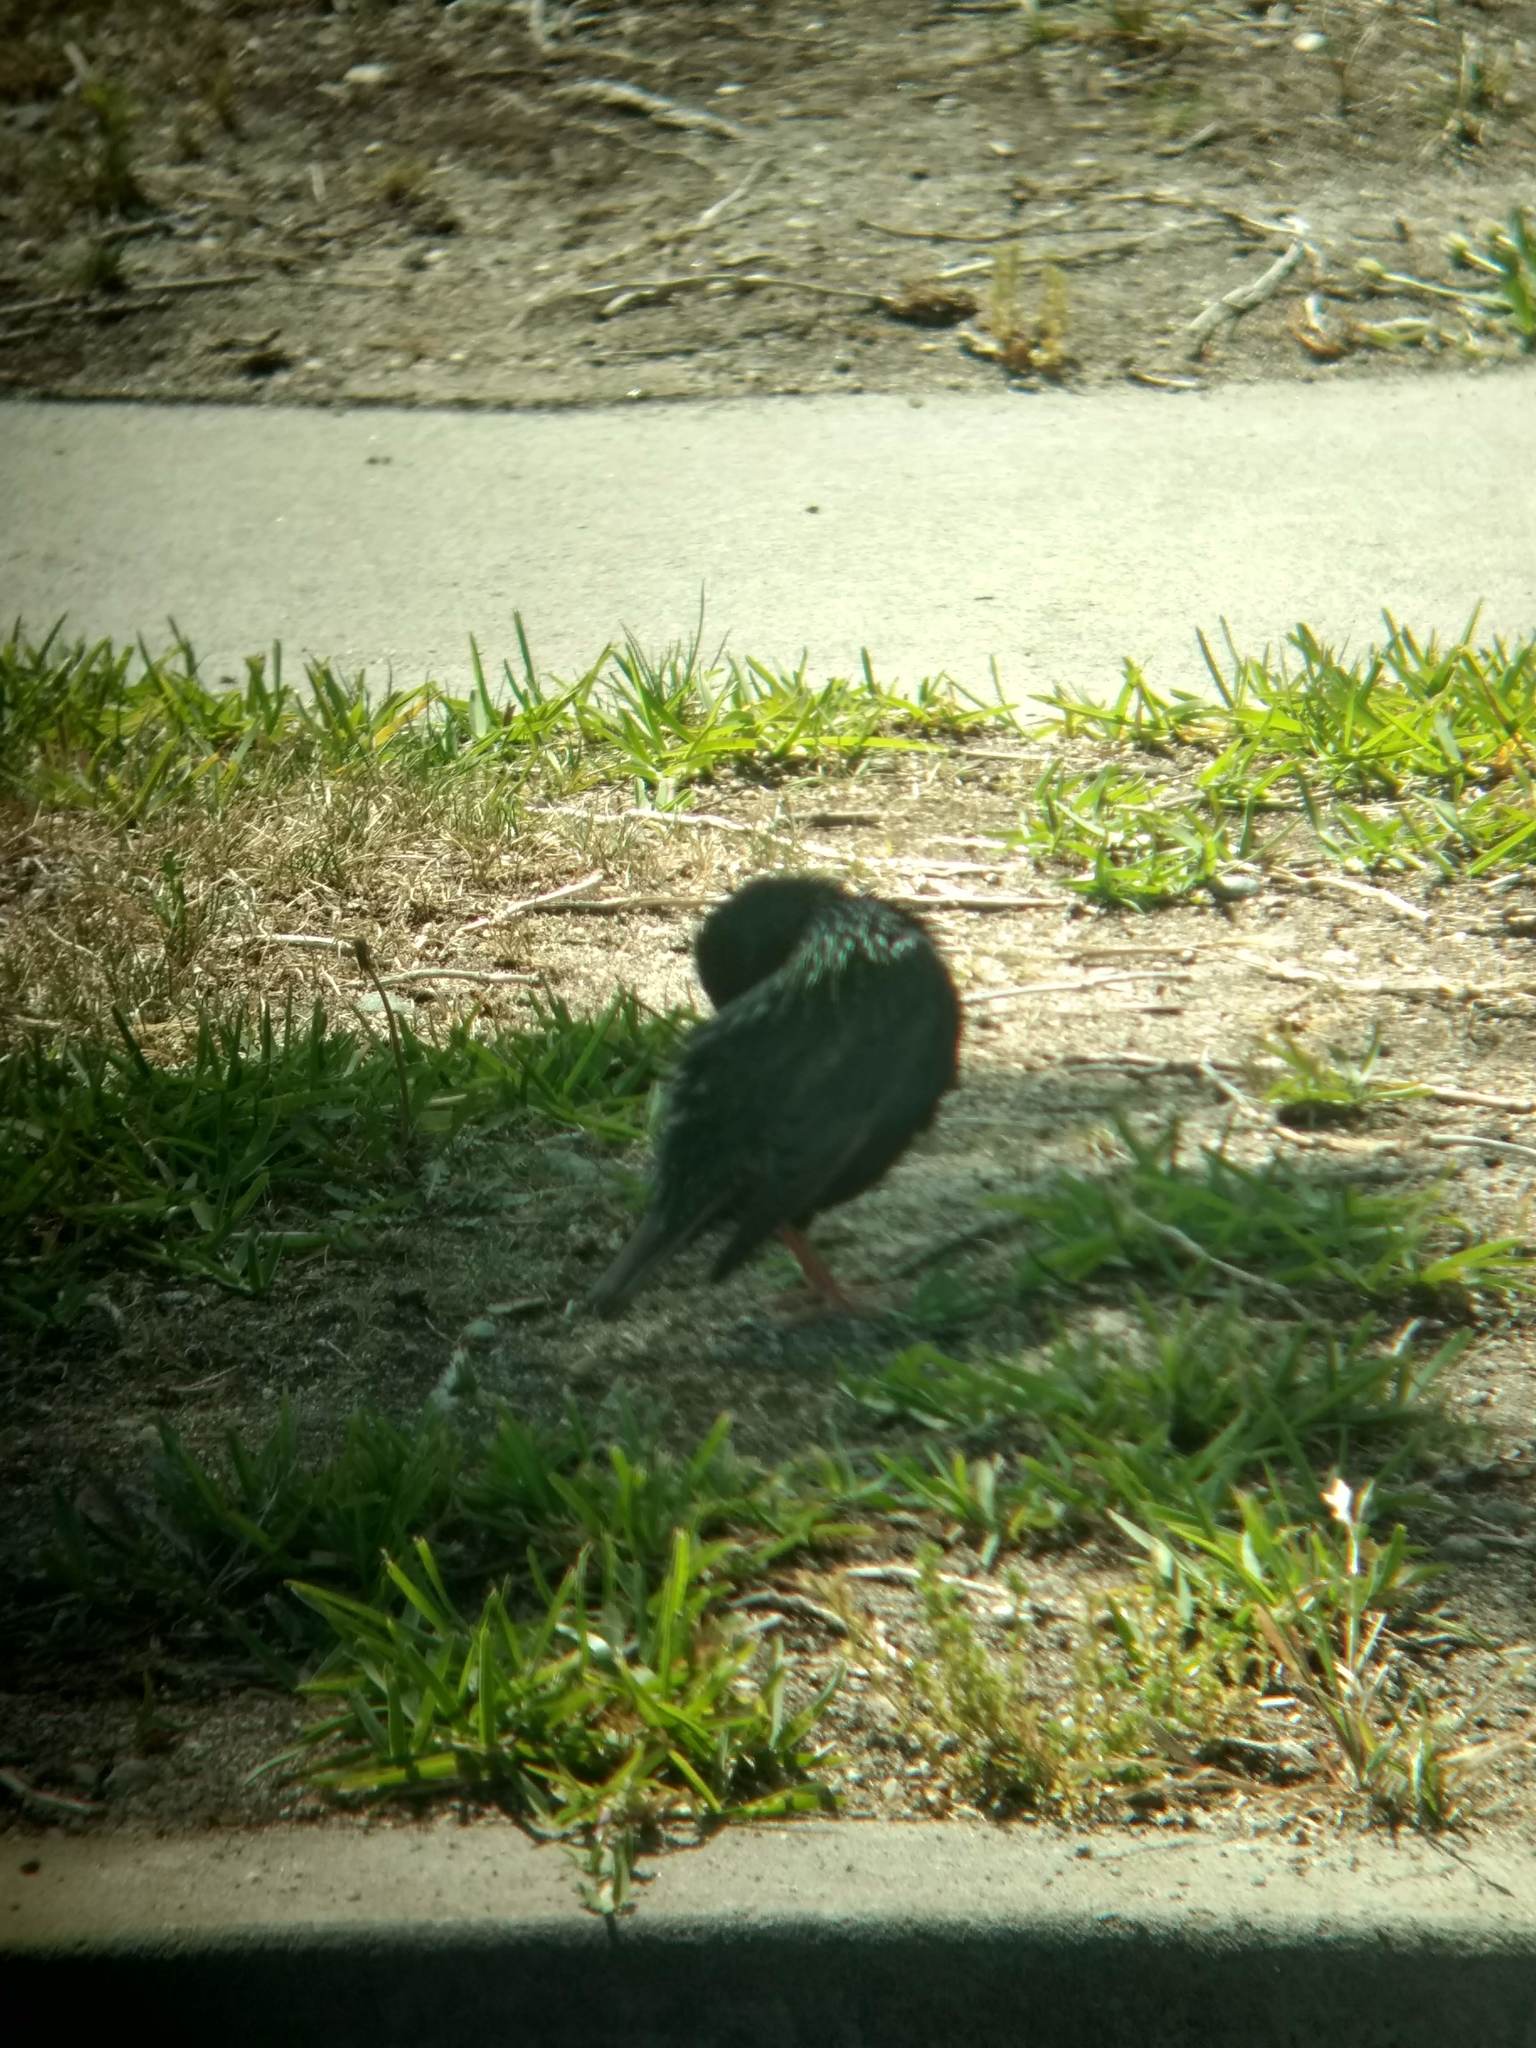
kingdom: Animalia
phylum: Chordata
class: Aves
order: Passeriformes
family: Sturnidae
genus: Sturnus
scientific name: Sturnus vulgaris
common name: Common starling
